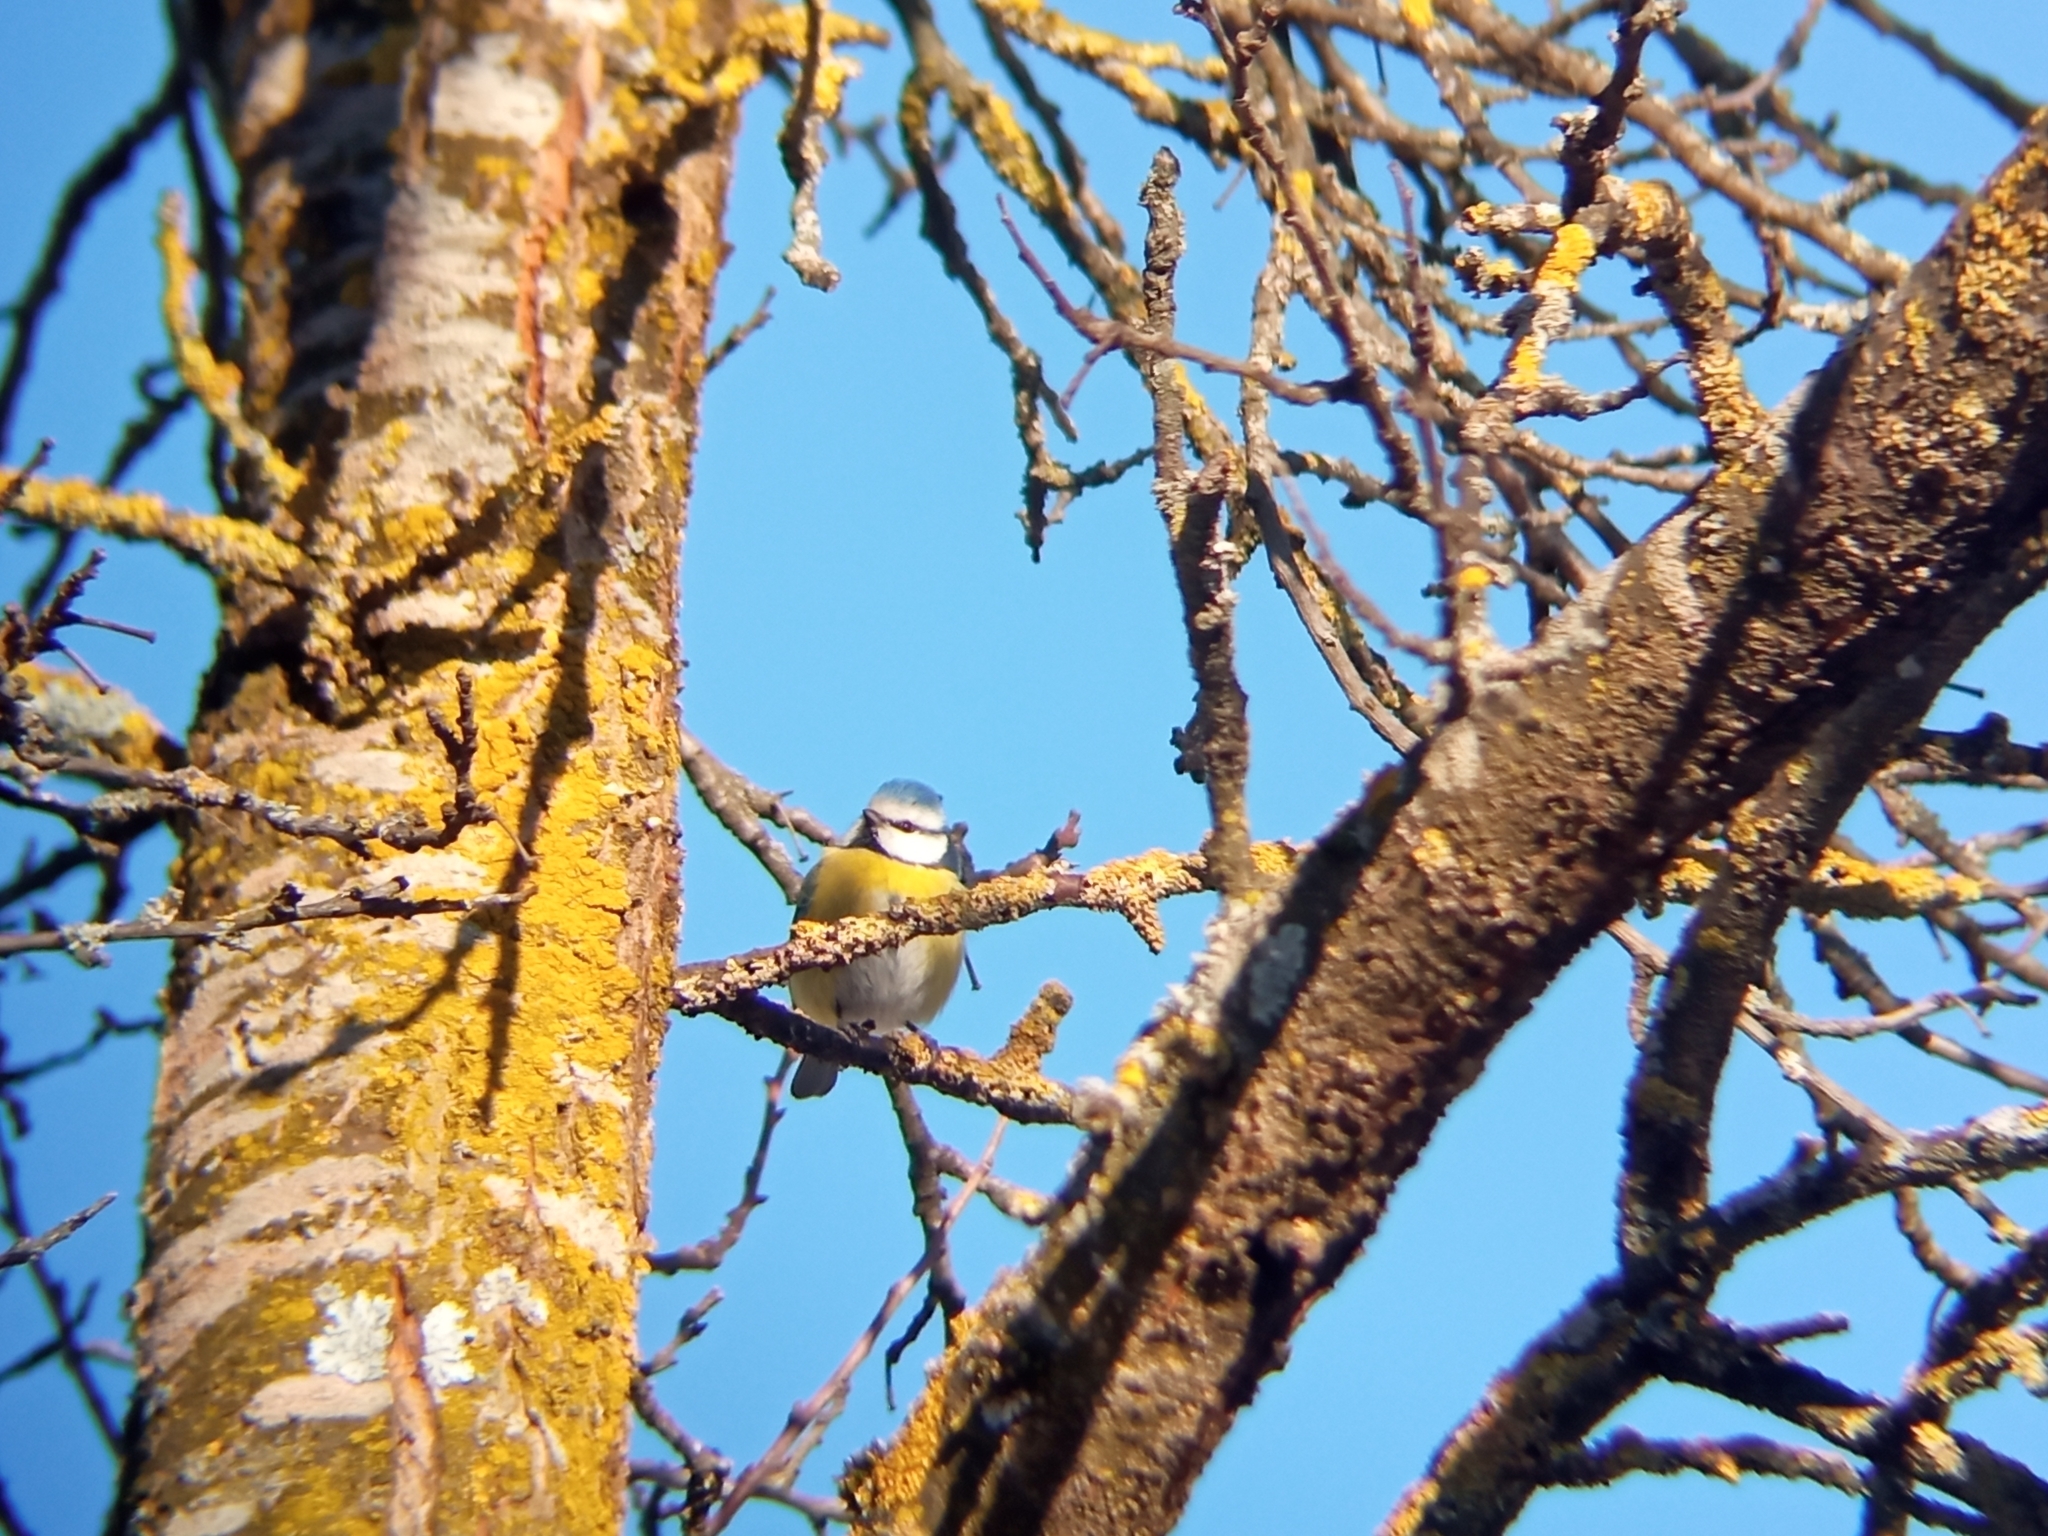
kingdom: Animalia
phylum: Chordata
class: Aves
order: Passeriformes
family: Paridae
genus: Cyanistes
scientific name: Cyanistes caeruleus
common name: Eurasian blue tit
